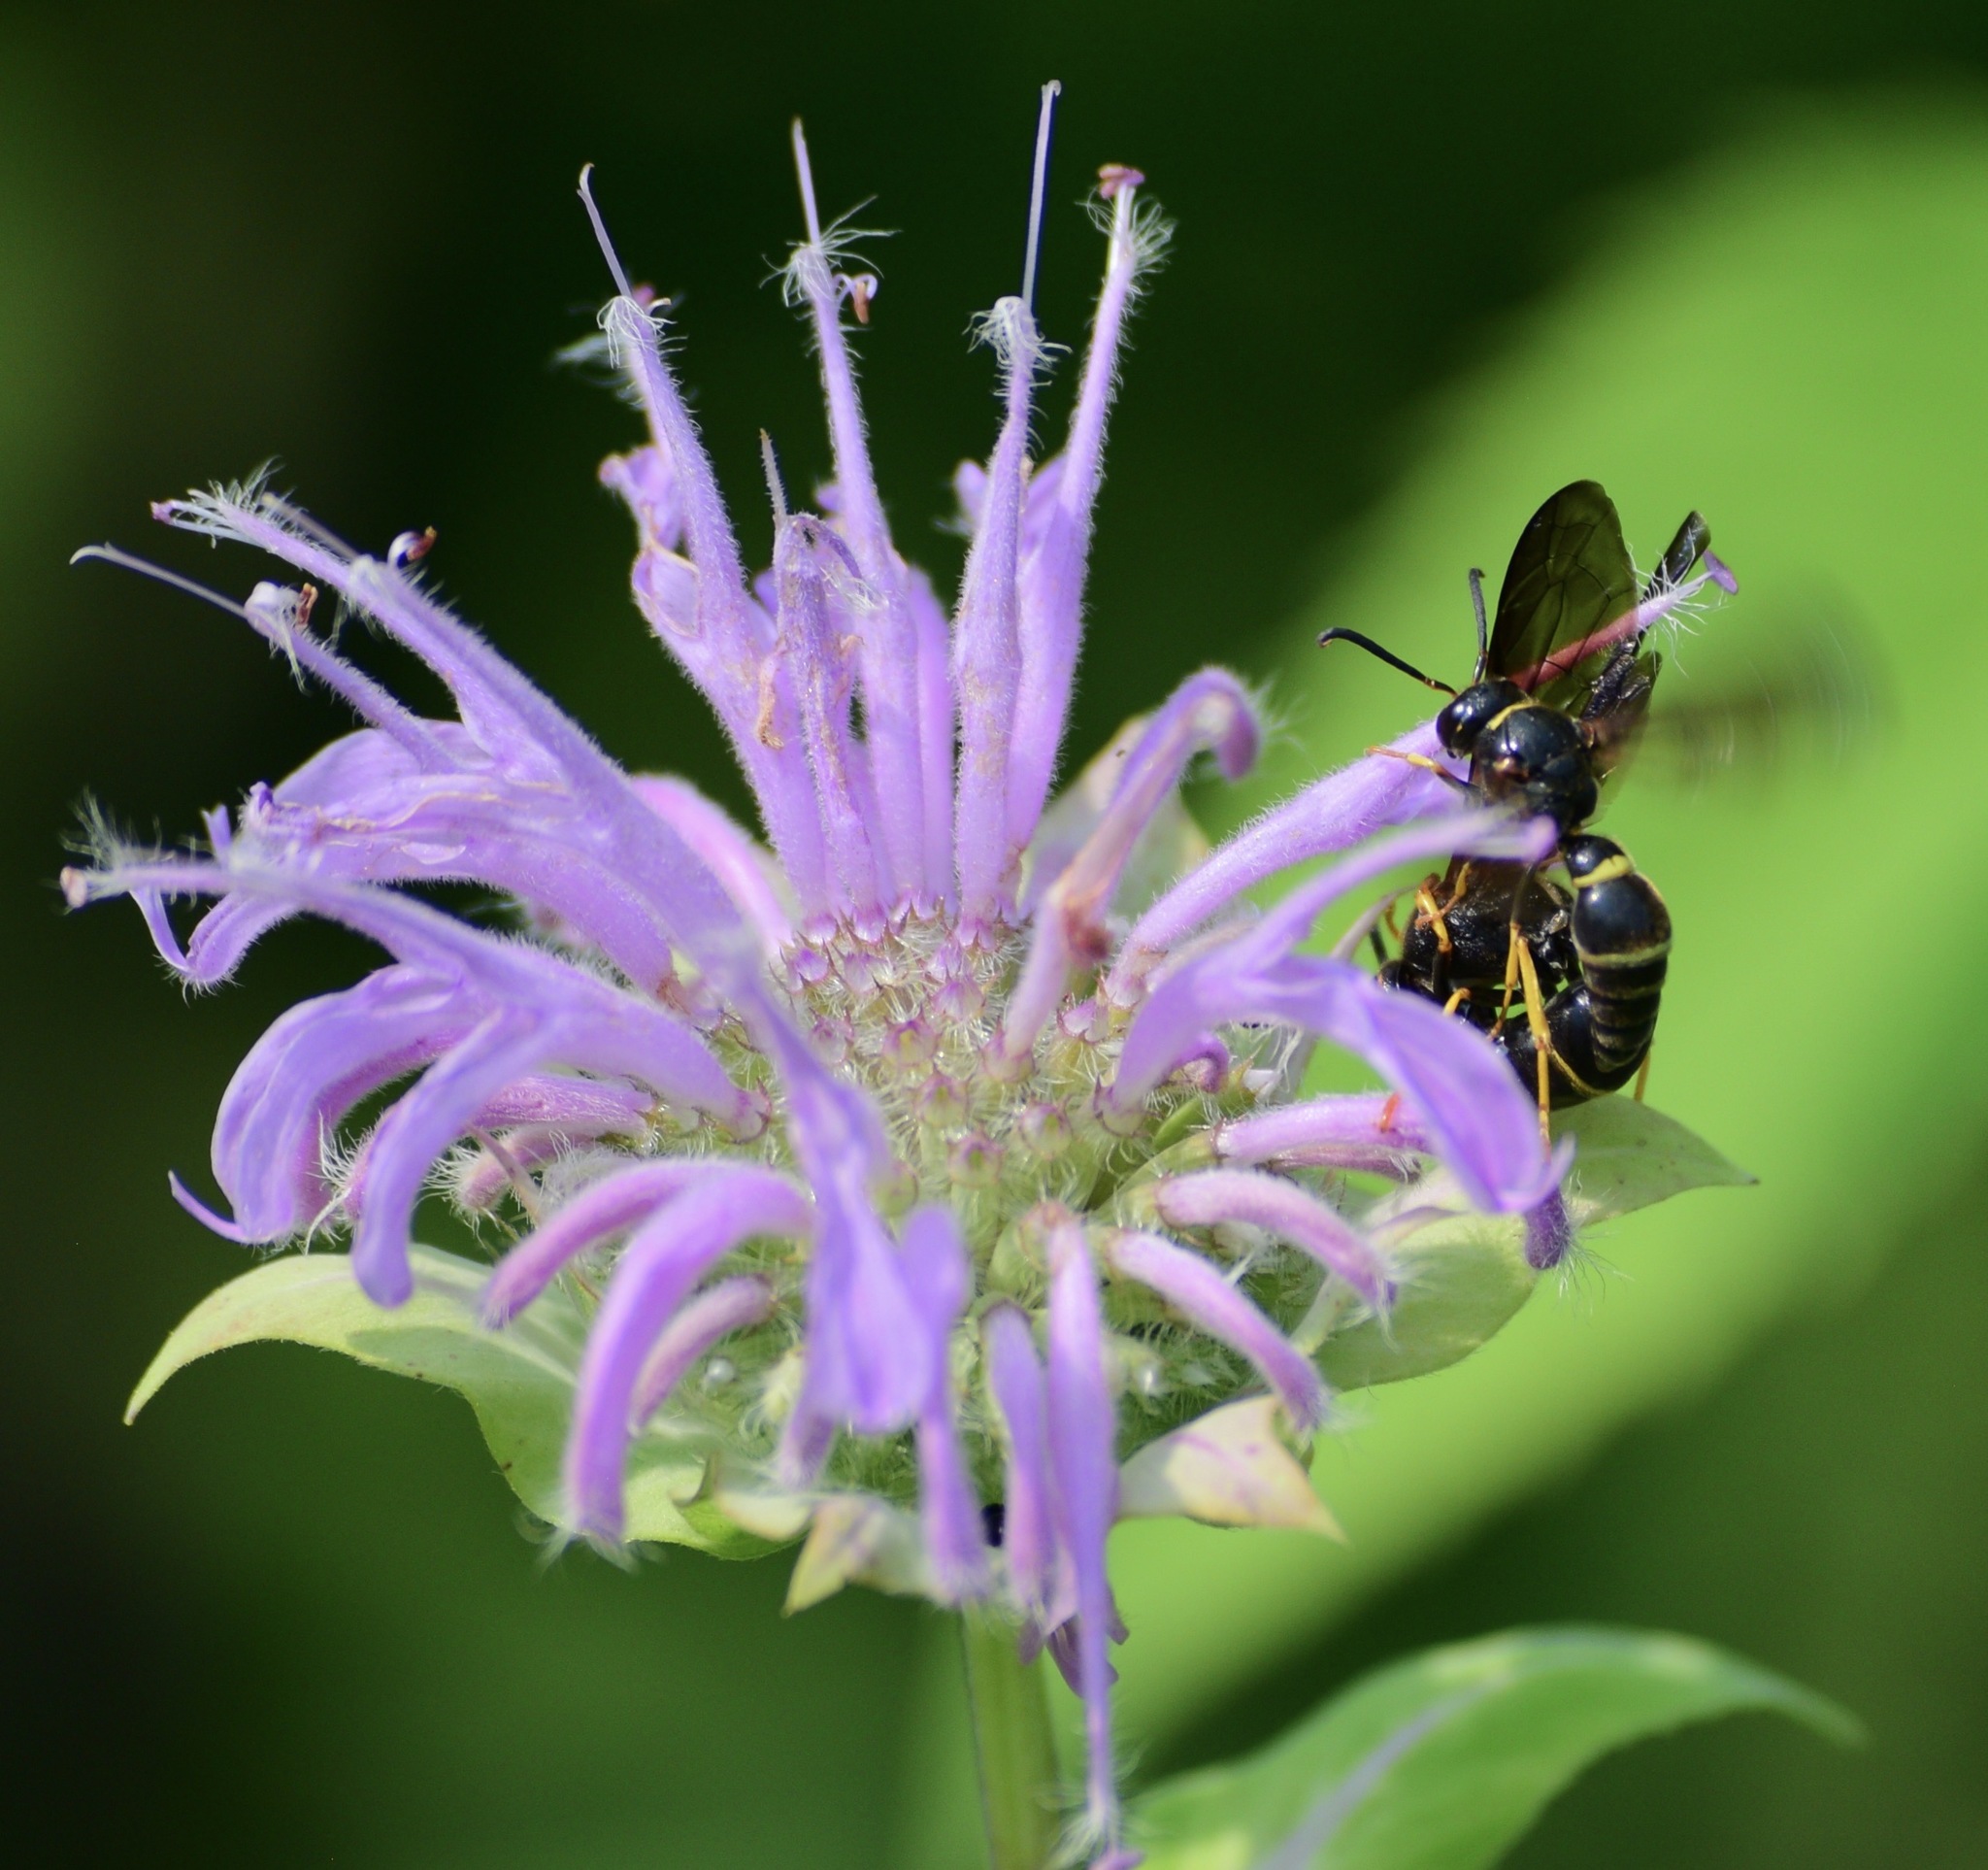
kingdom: Animalia
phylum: Arthropoda
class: Insecta
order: Hymenoptera
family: Eumenidae
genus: Parazumia
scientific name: Parazumia symmorpha
